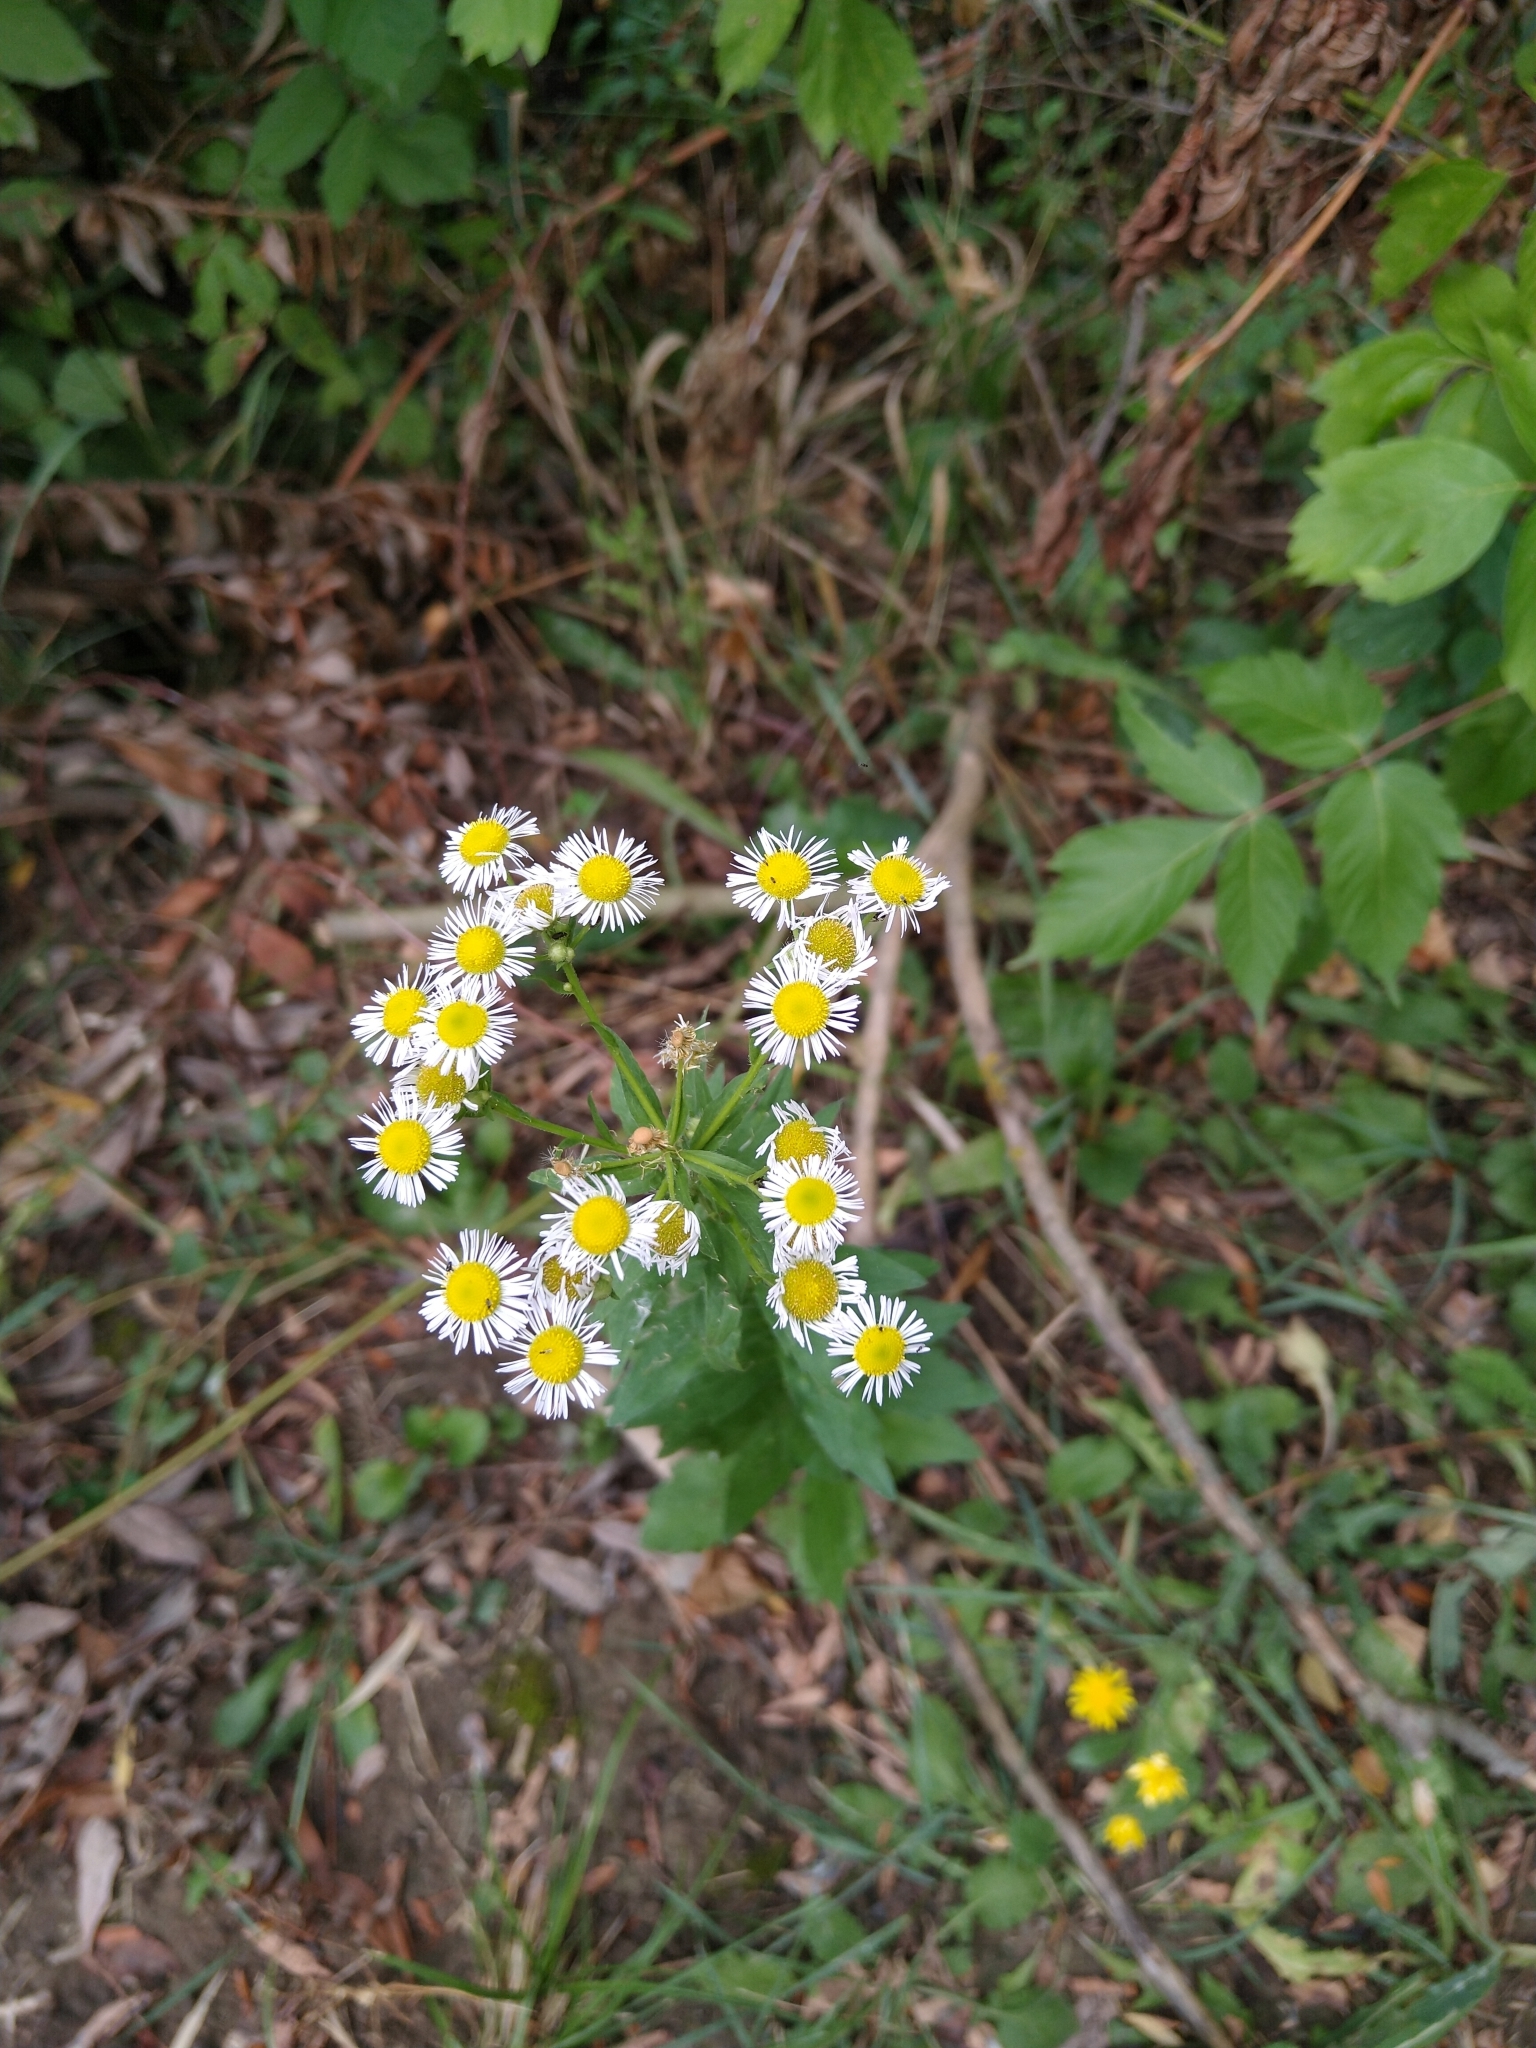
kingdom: Plantae
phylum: Tracheophyta
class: Magnoliopsida
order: Asterales
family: Asteraceae
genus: Erigeron
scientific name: Erigeron annuus
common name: Tall fleabane
